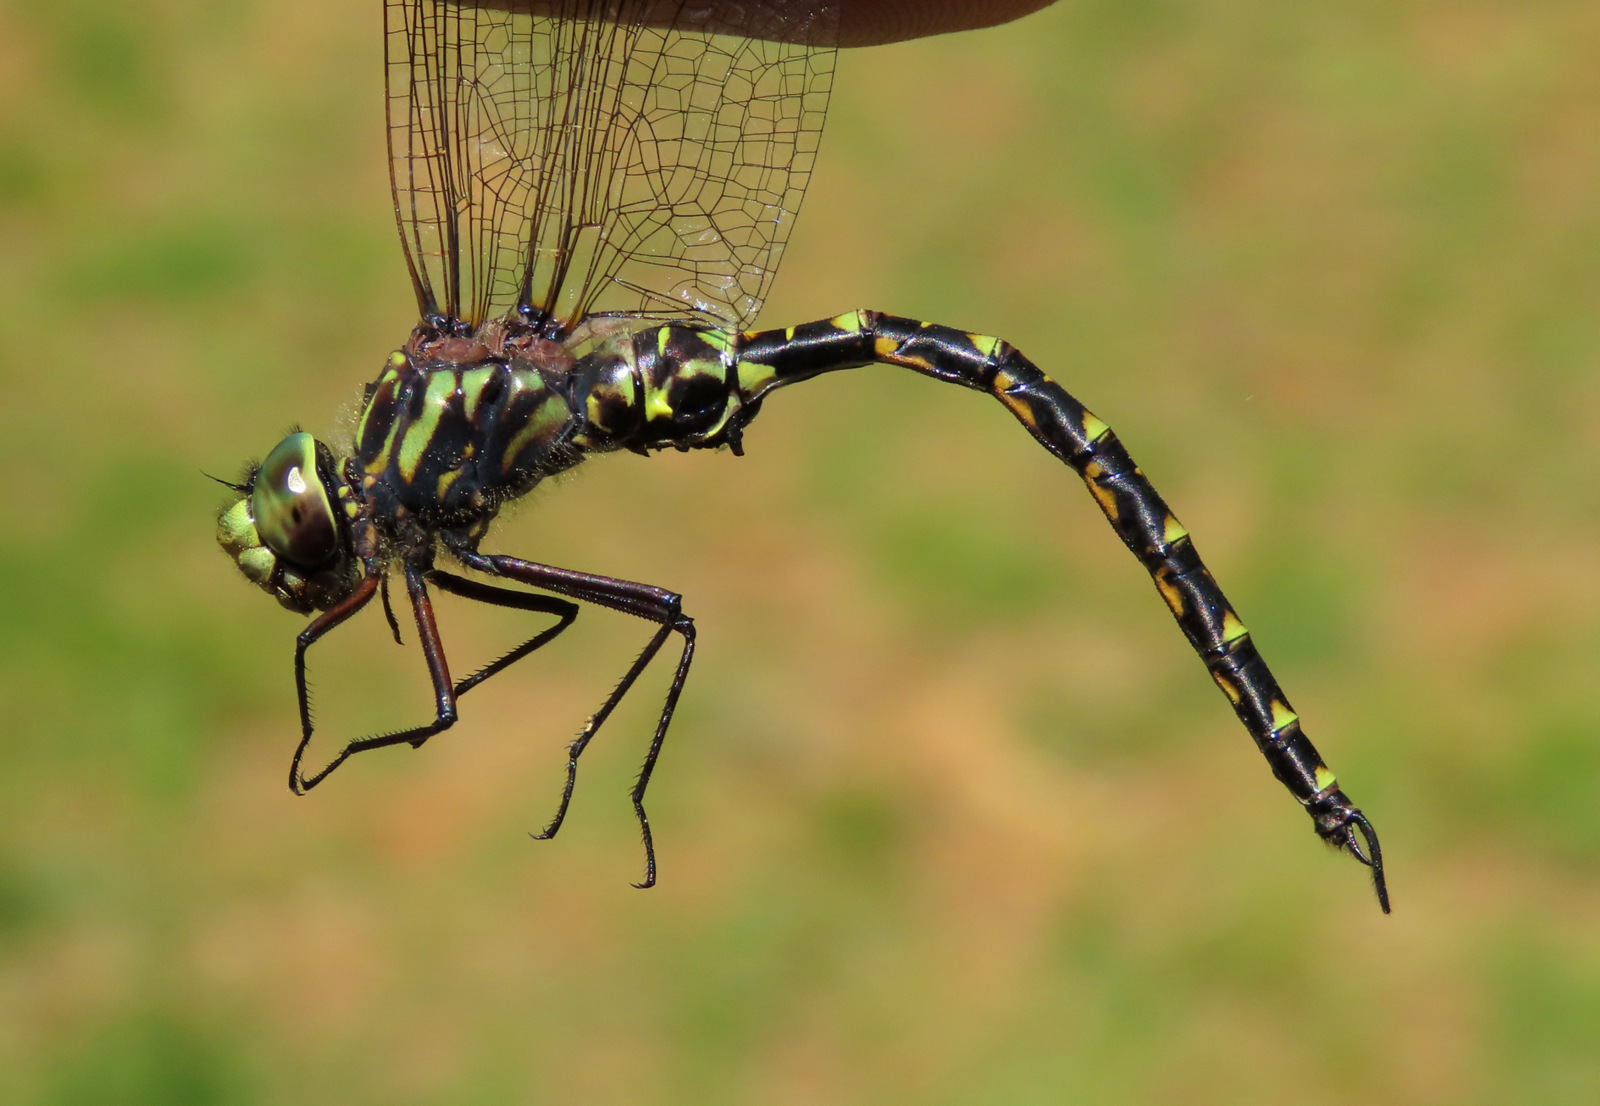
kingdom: Animalia
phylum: Arthropoda
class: Insecta
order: Odonata
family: Aeshnidae
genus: Gomphaeschna
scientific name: Gomphaeschna furcillata
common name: Harlequin darner
